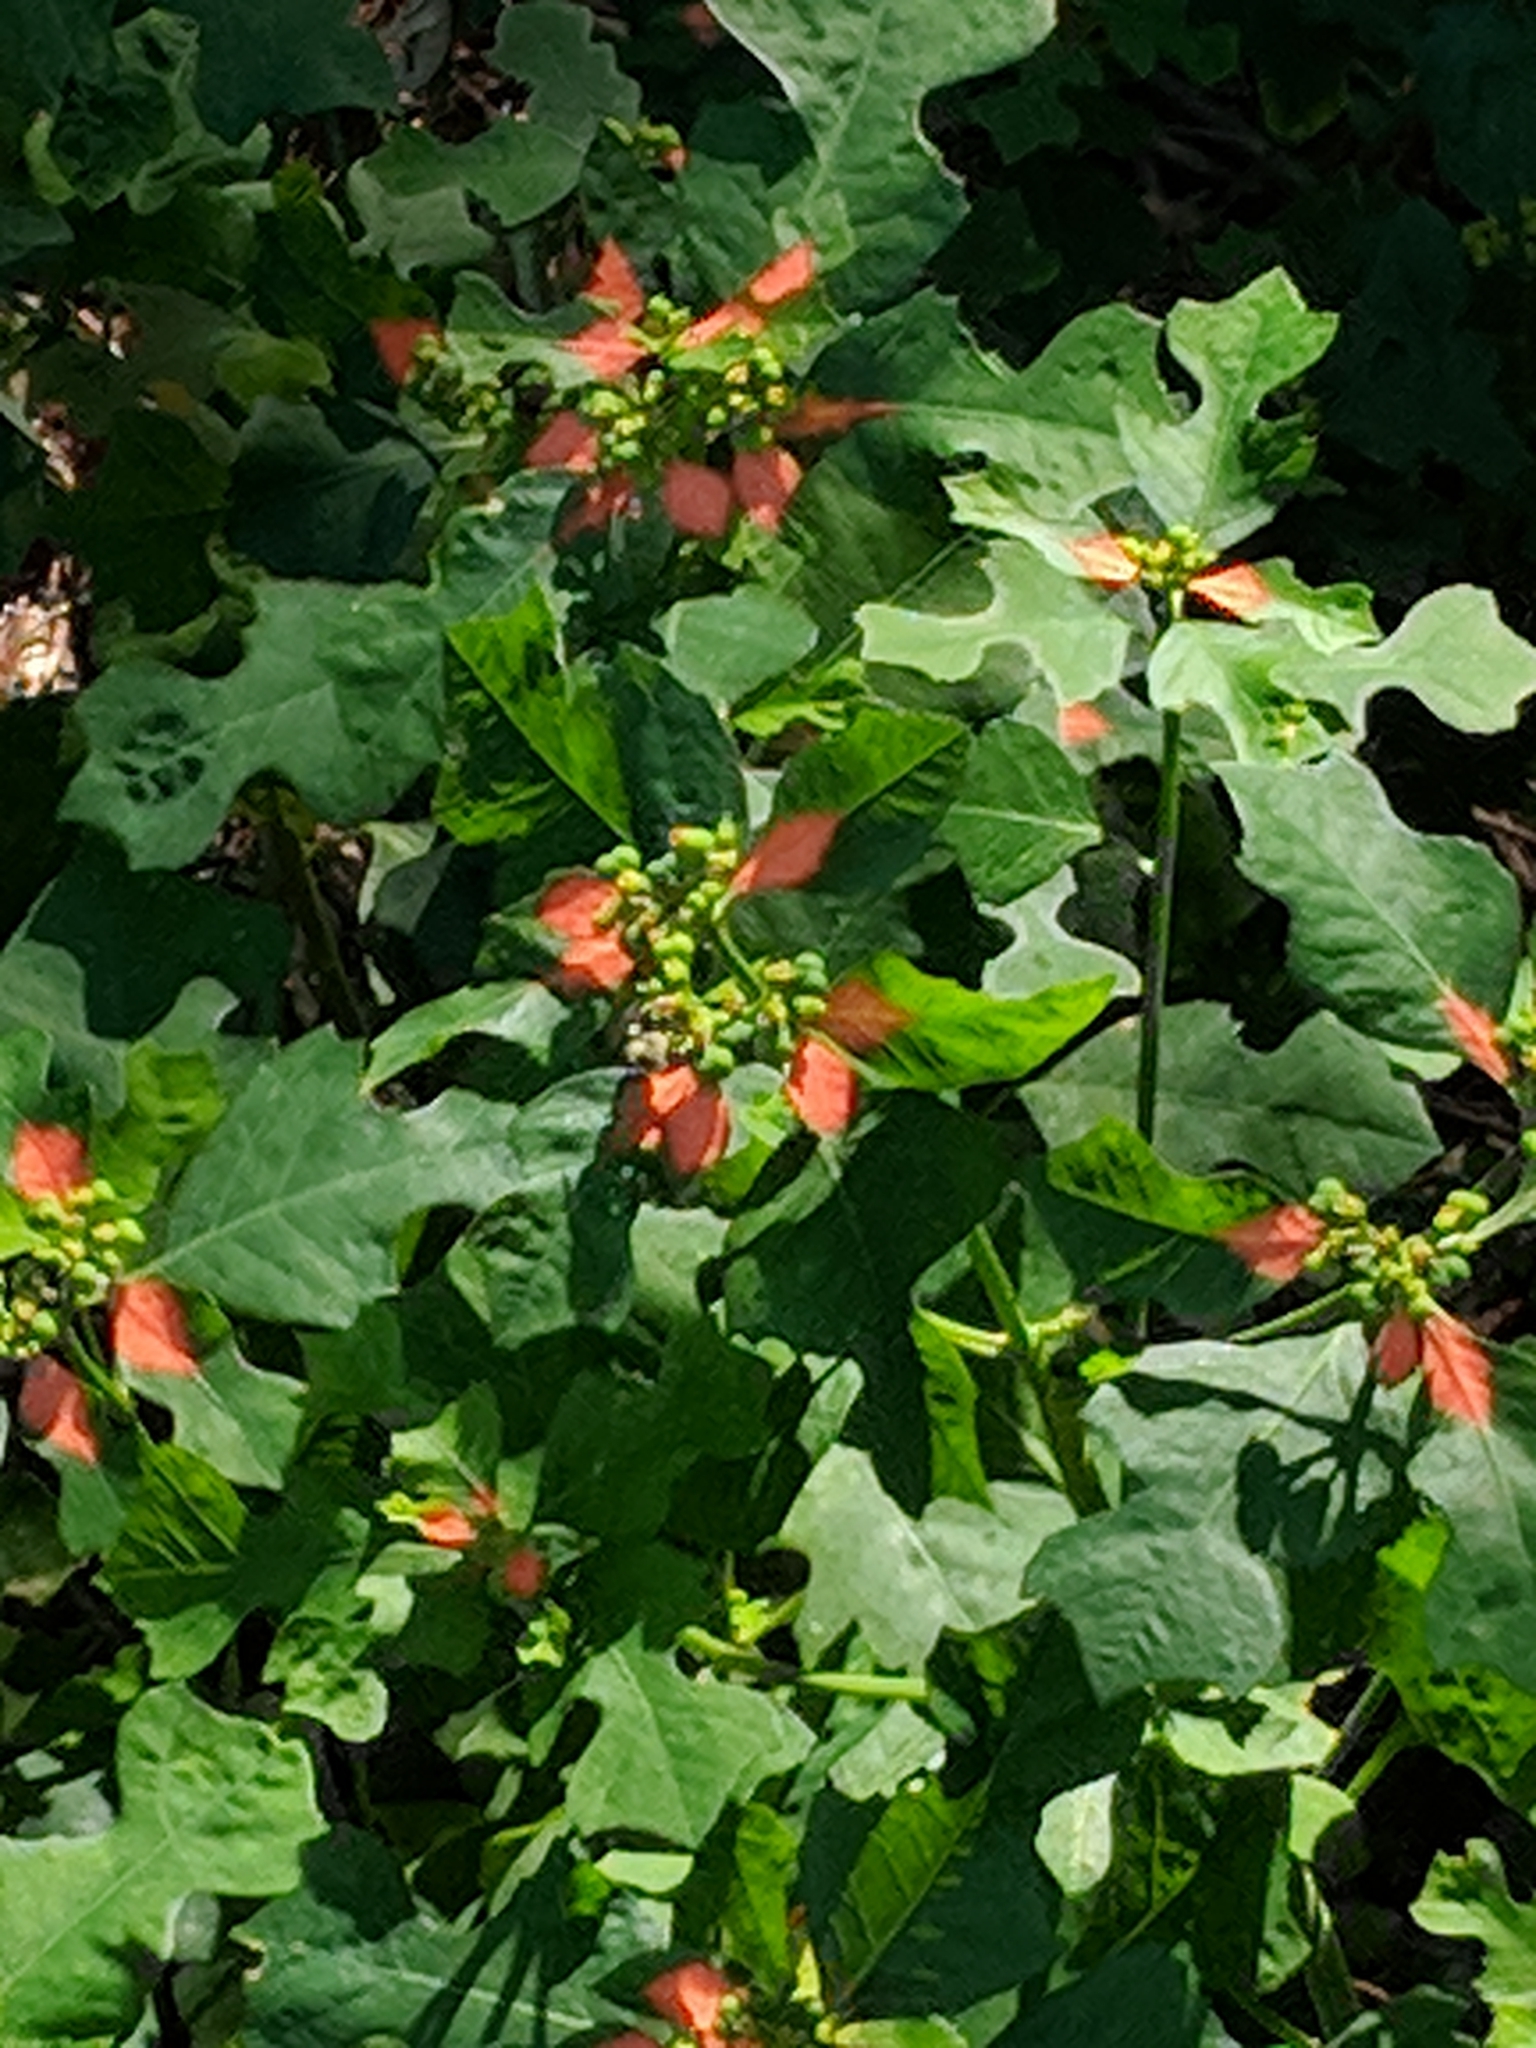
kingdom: Plantae
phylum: Tracheophyta
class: Magnoliopsida
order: Malpighiales
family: Euphorbiaceae
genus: Euphorbia
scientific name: Euphorbia heterophylla
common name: Mexican fireplant
